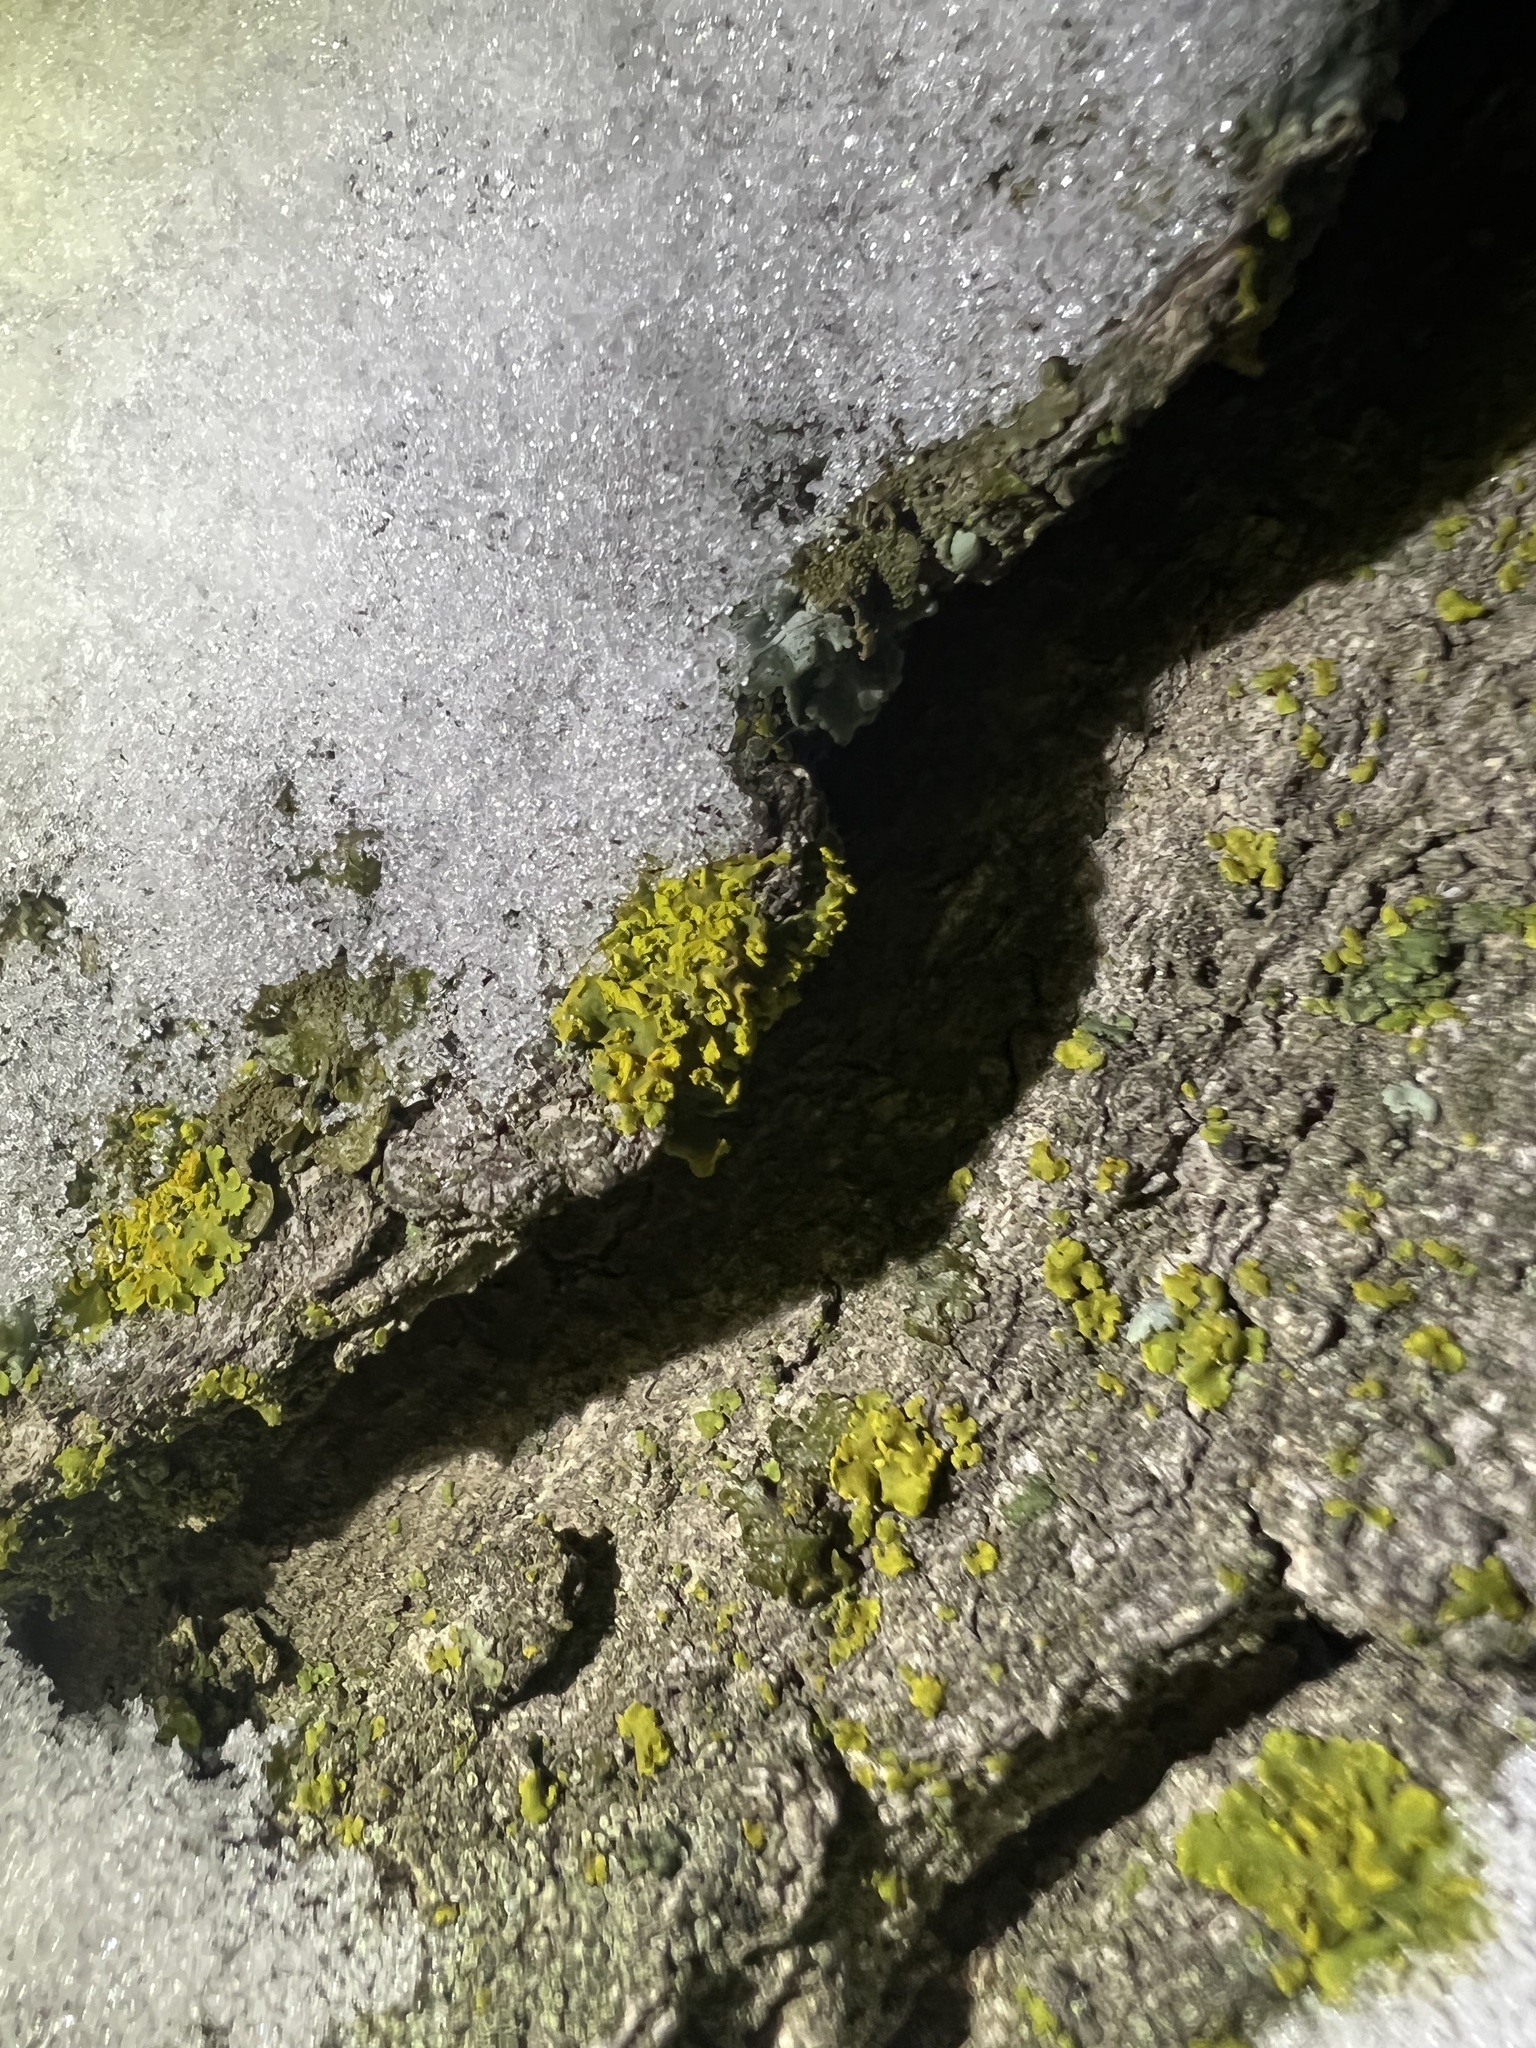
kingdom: Fungi
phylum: Ascomycota
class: Lecanoromycetes
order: Teloschistales
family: Teloschistaceae
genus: Oxneria
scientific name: Oxneria fallax
